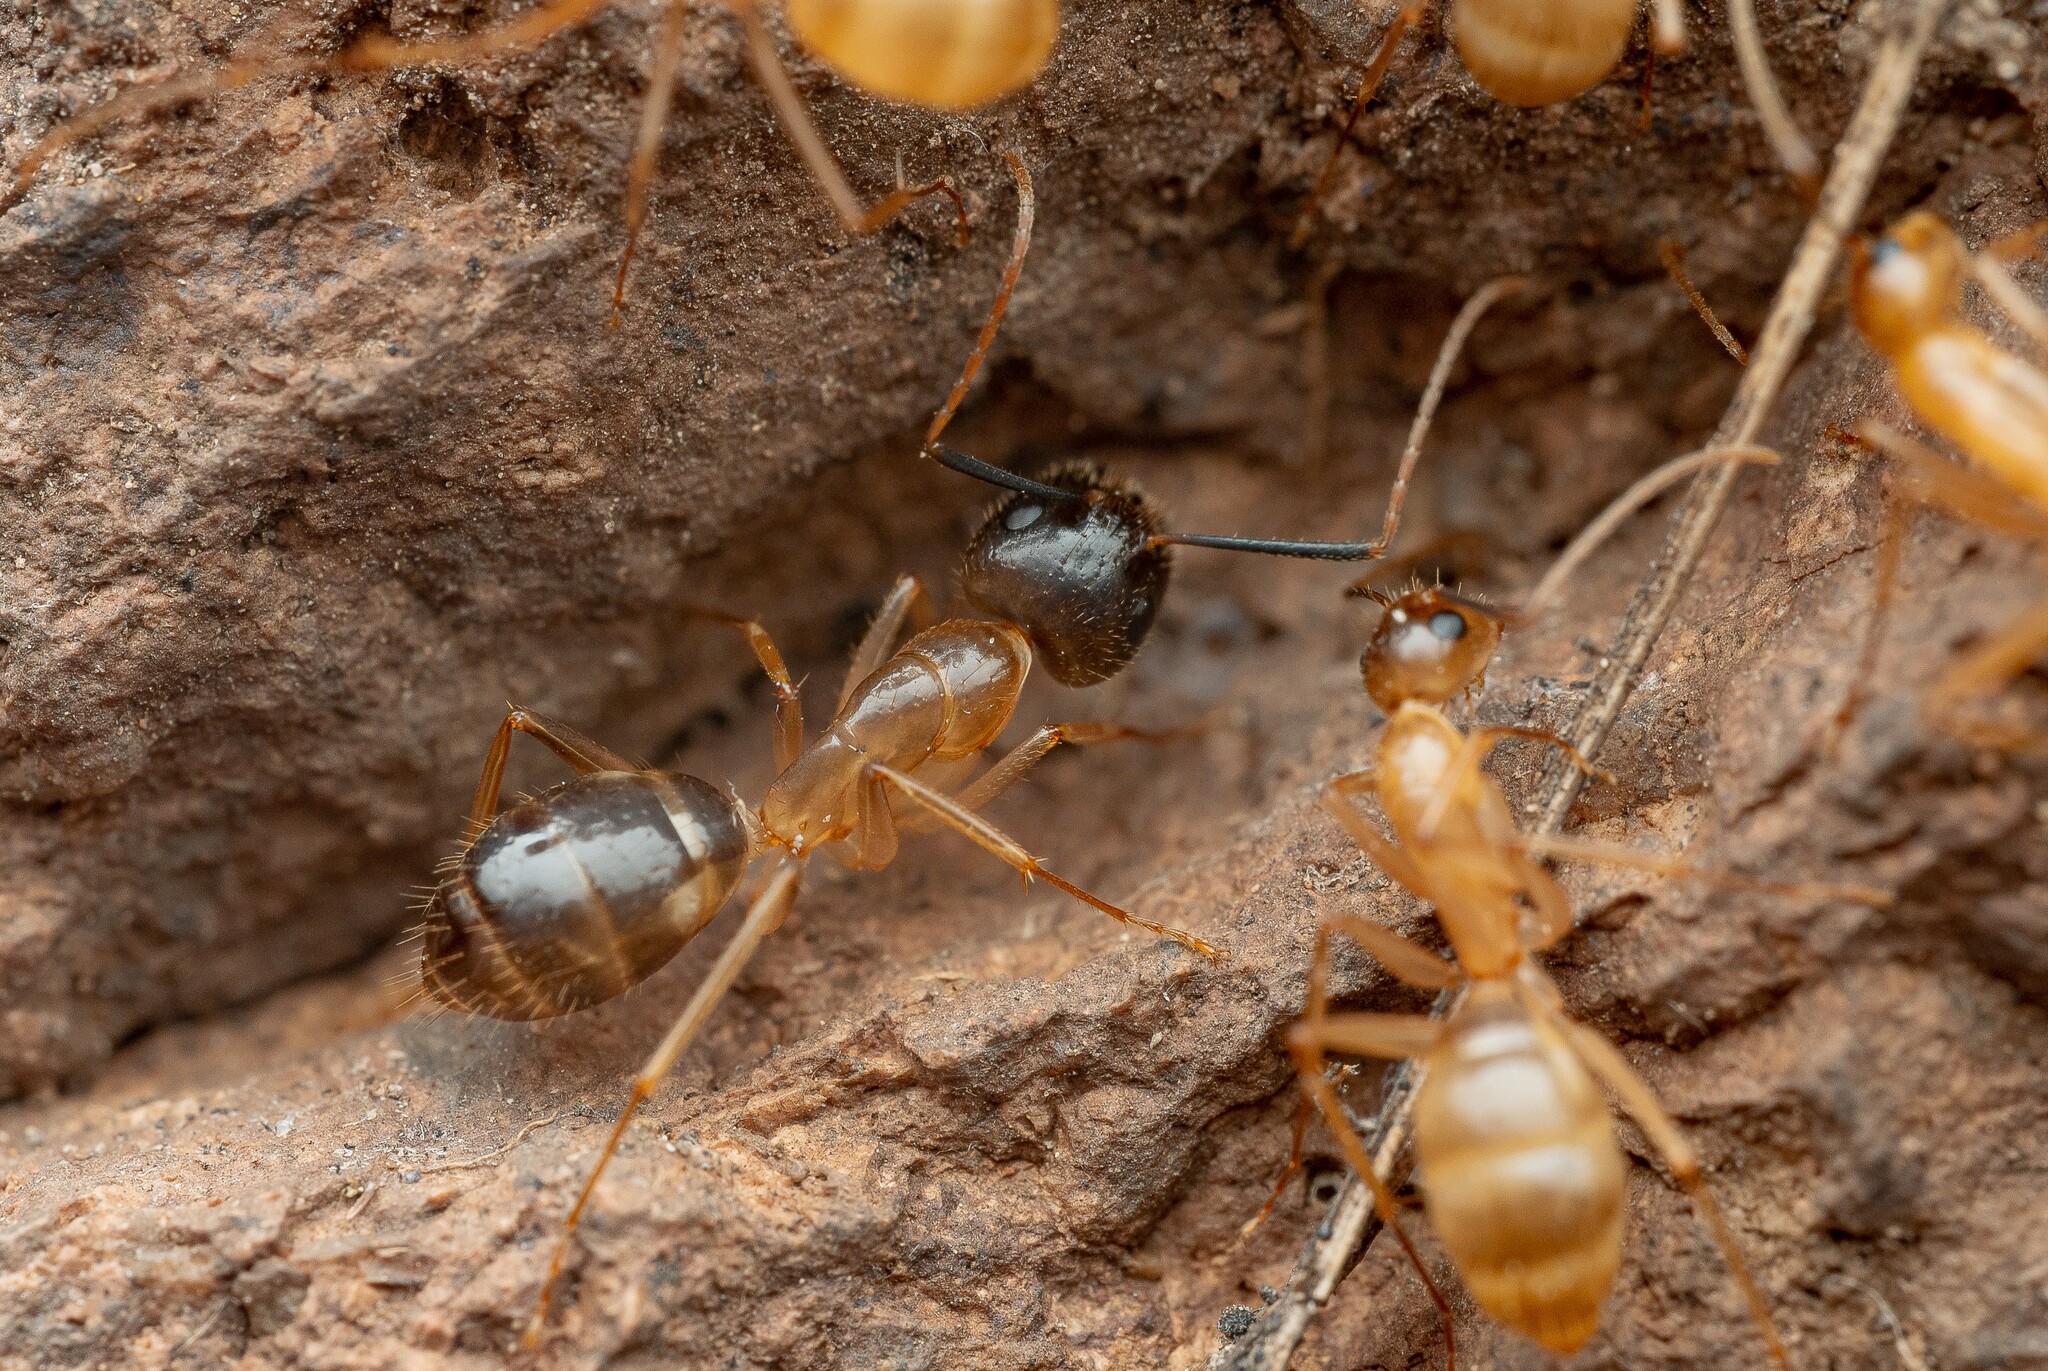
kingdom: Animalia
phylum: Arthropoda
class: Insecta
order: Hymenoptera
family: Formicidae
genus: Camponotus
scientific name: Camponotus pudorosus
